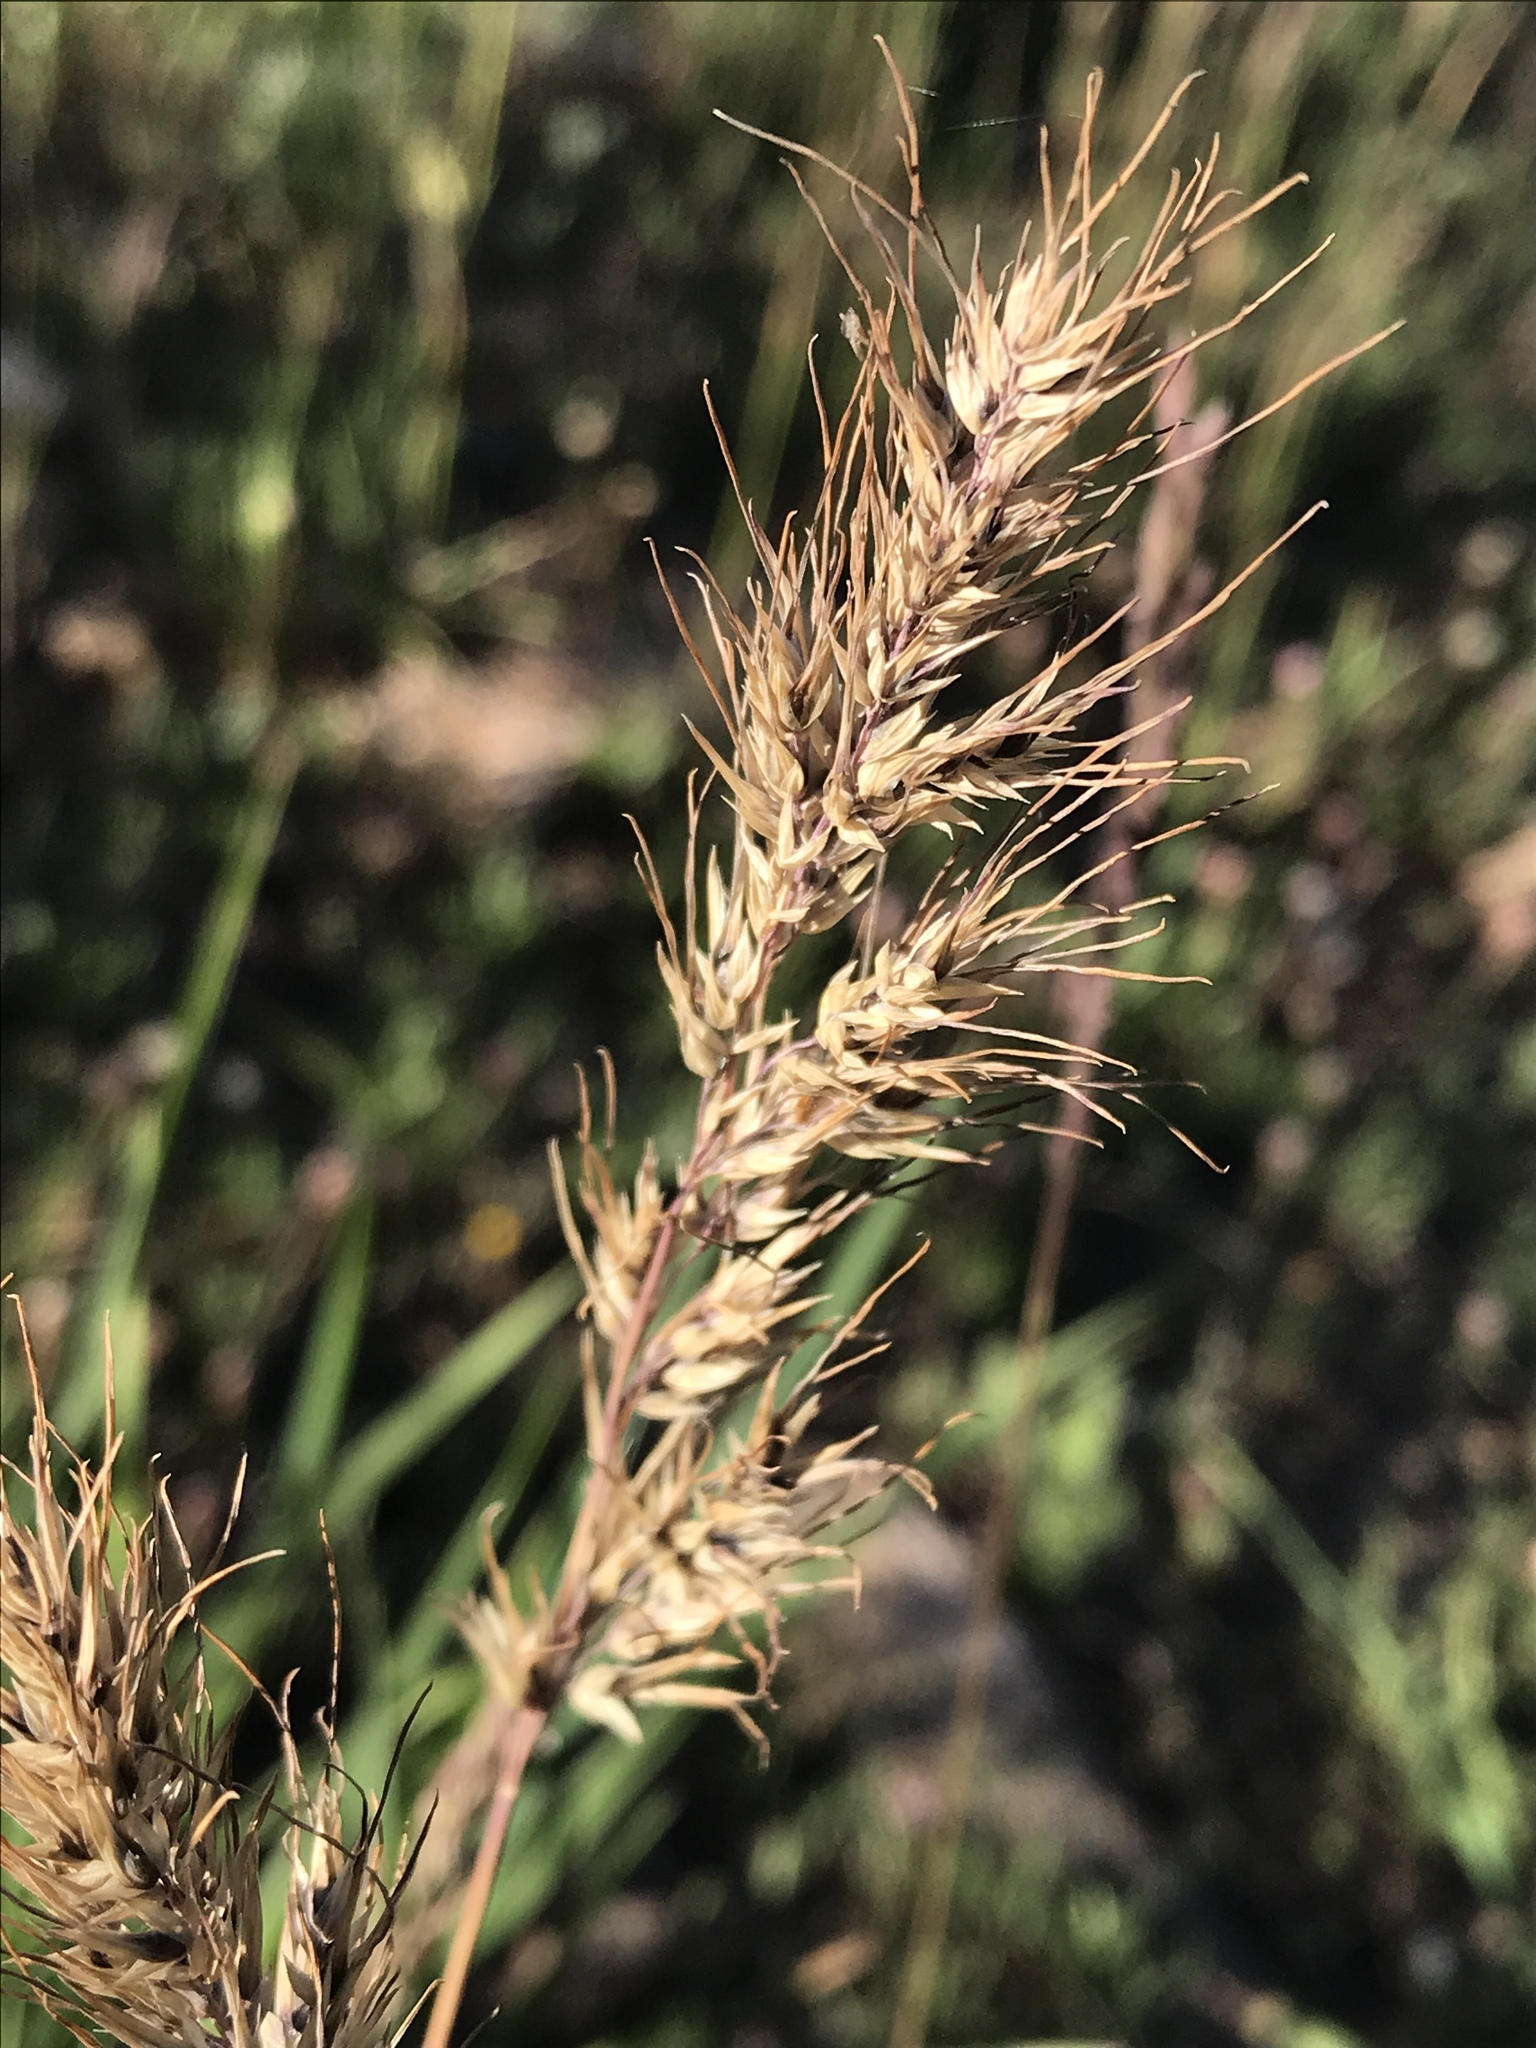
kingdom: Plantae
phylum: Tracheophyta
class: Liliopsida
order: Poales
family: Poaceae
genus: Poa
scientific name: Poa bulbosa
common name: Bulbous bluegrass
